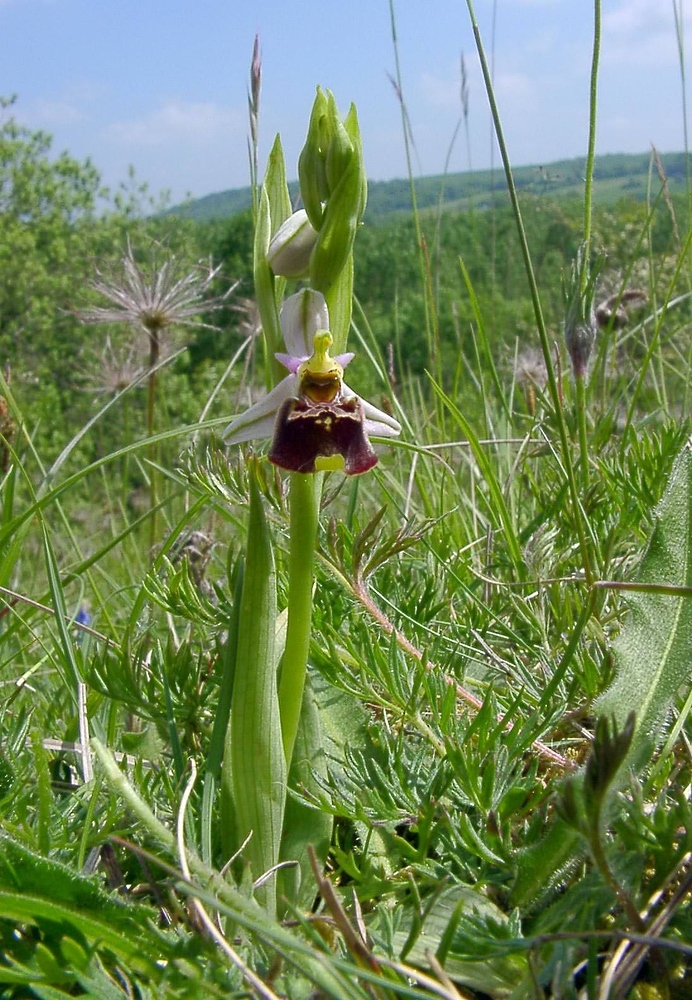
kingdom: Plantae
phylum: Tracheophyta
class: Liliopsida
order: Asparagales
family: Orchidaceae
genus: Ophrys
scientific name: Ophrys holosericea
